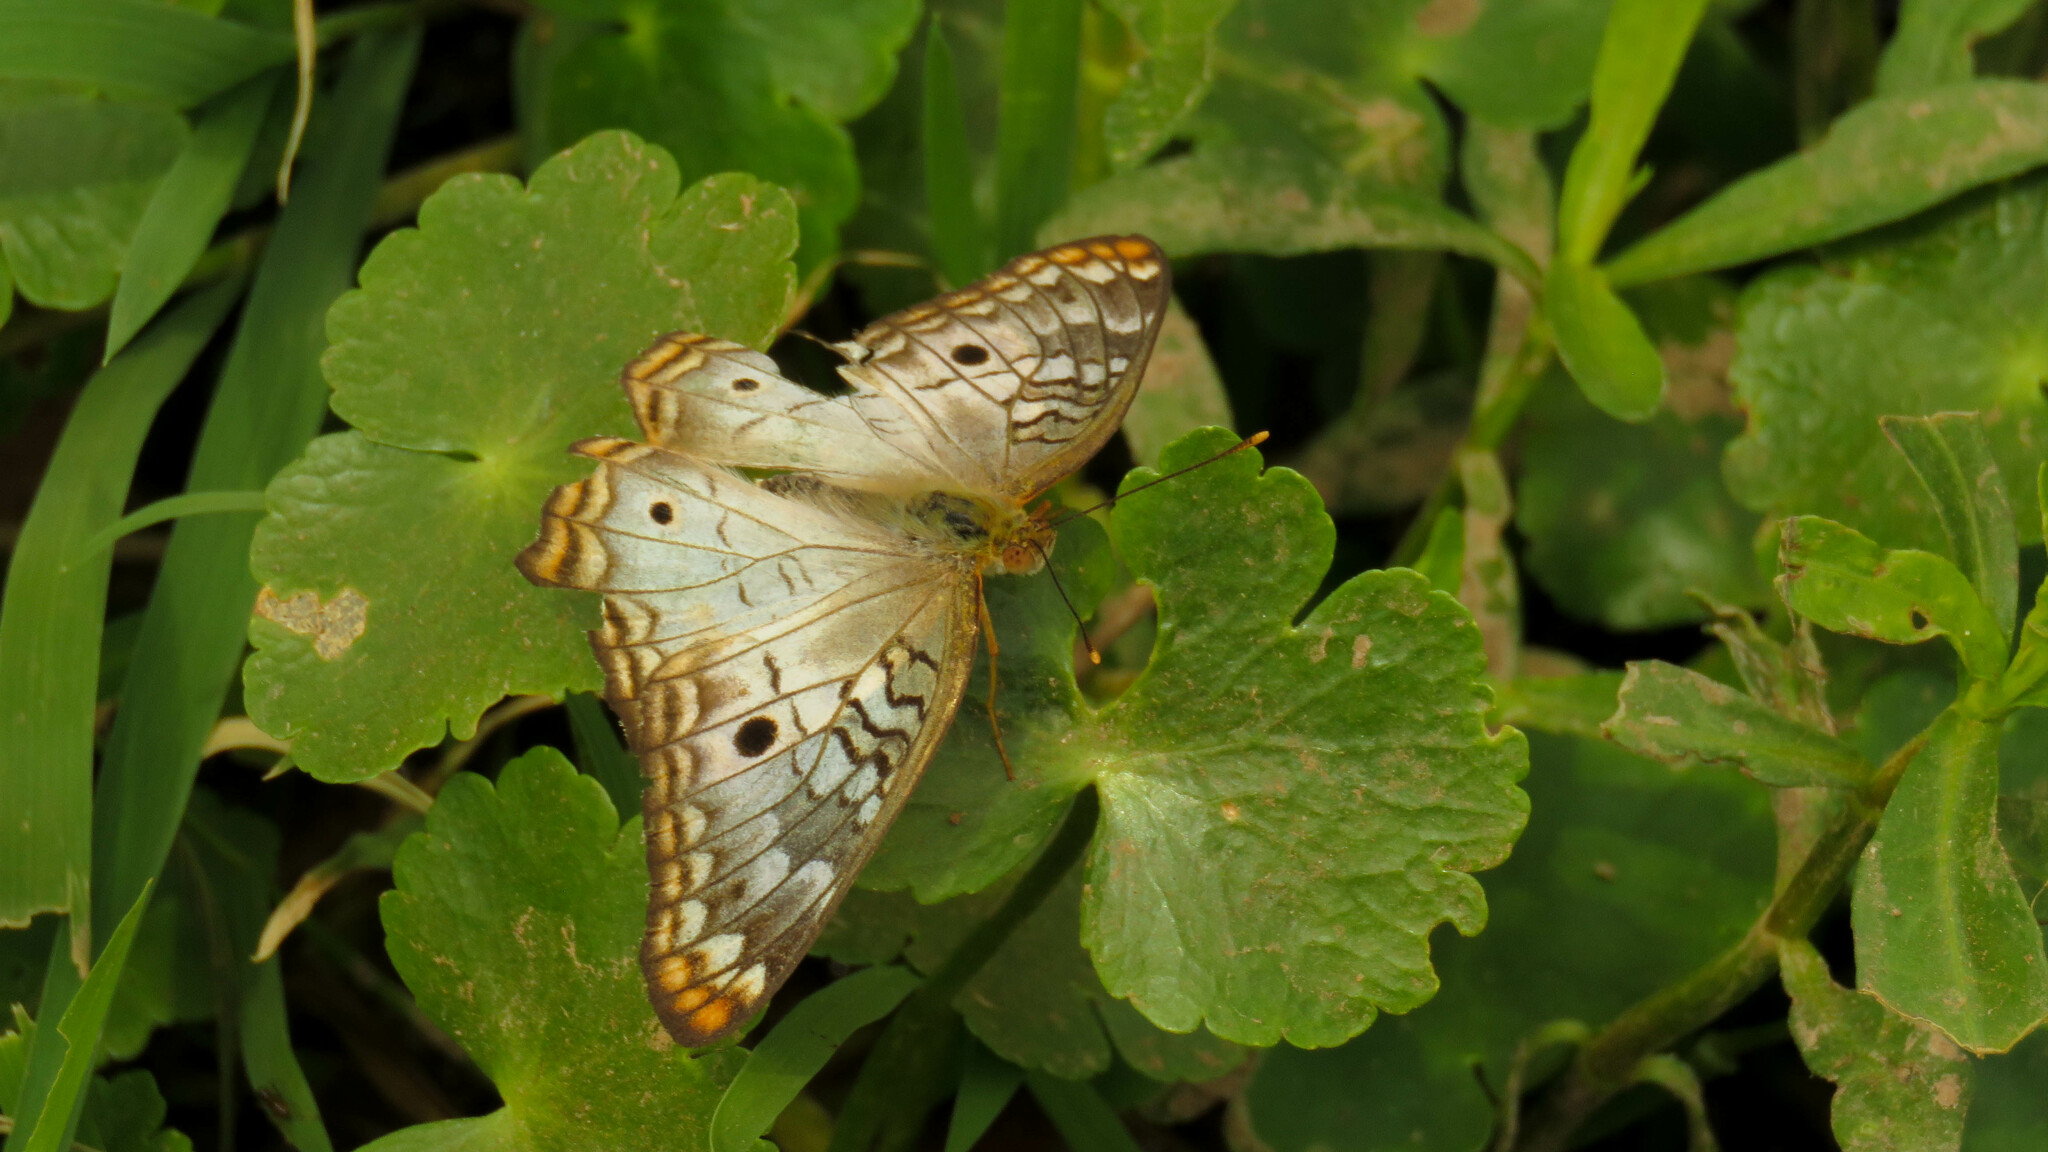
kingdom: Animalia
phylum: Arthropoda
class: Insecta
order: Lepidoptera
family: Nymphalidae
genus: Anartia
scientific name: Anartia jatrophae
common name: White peacock
